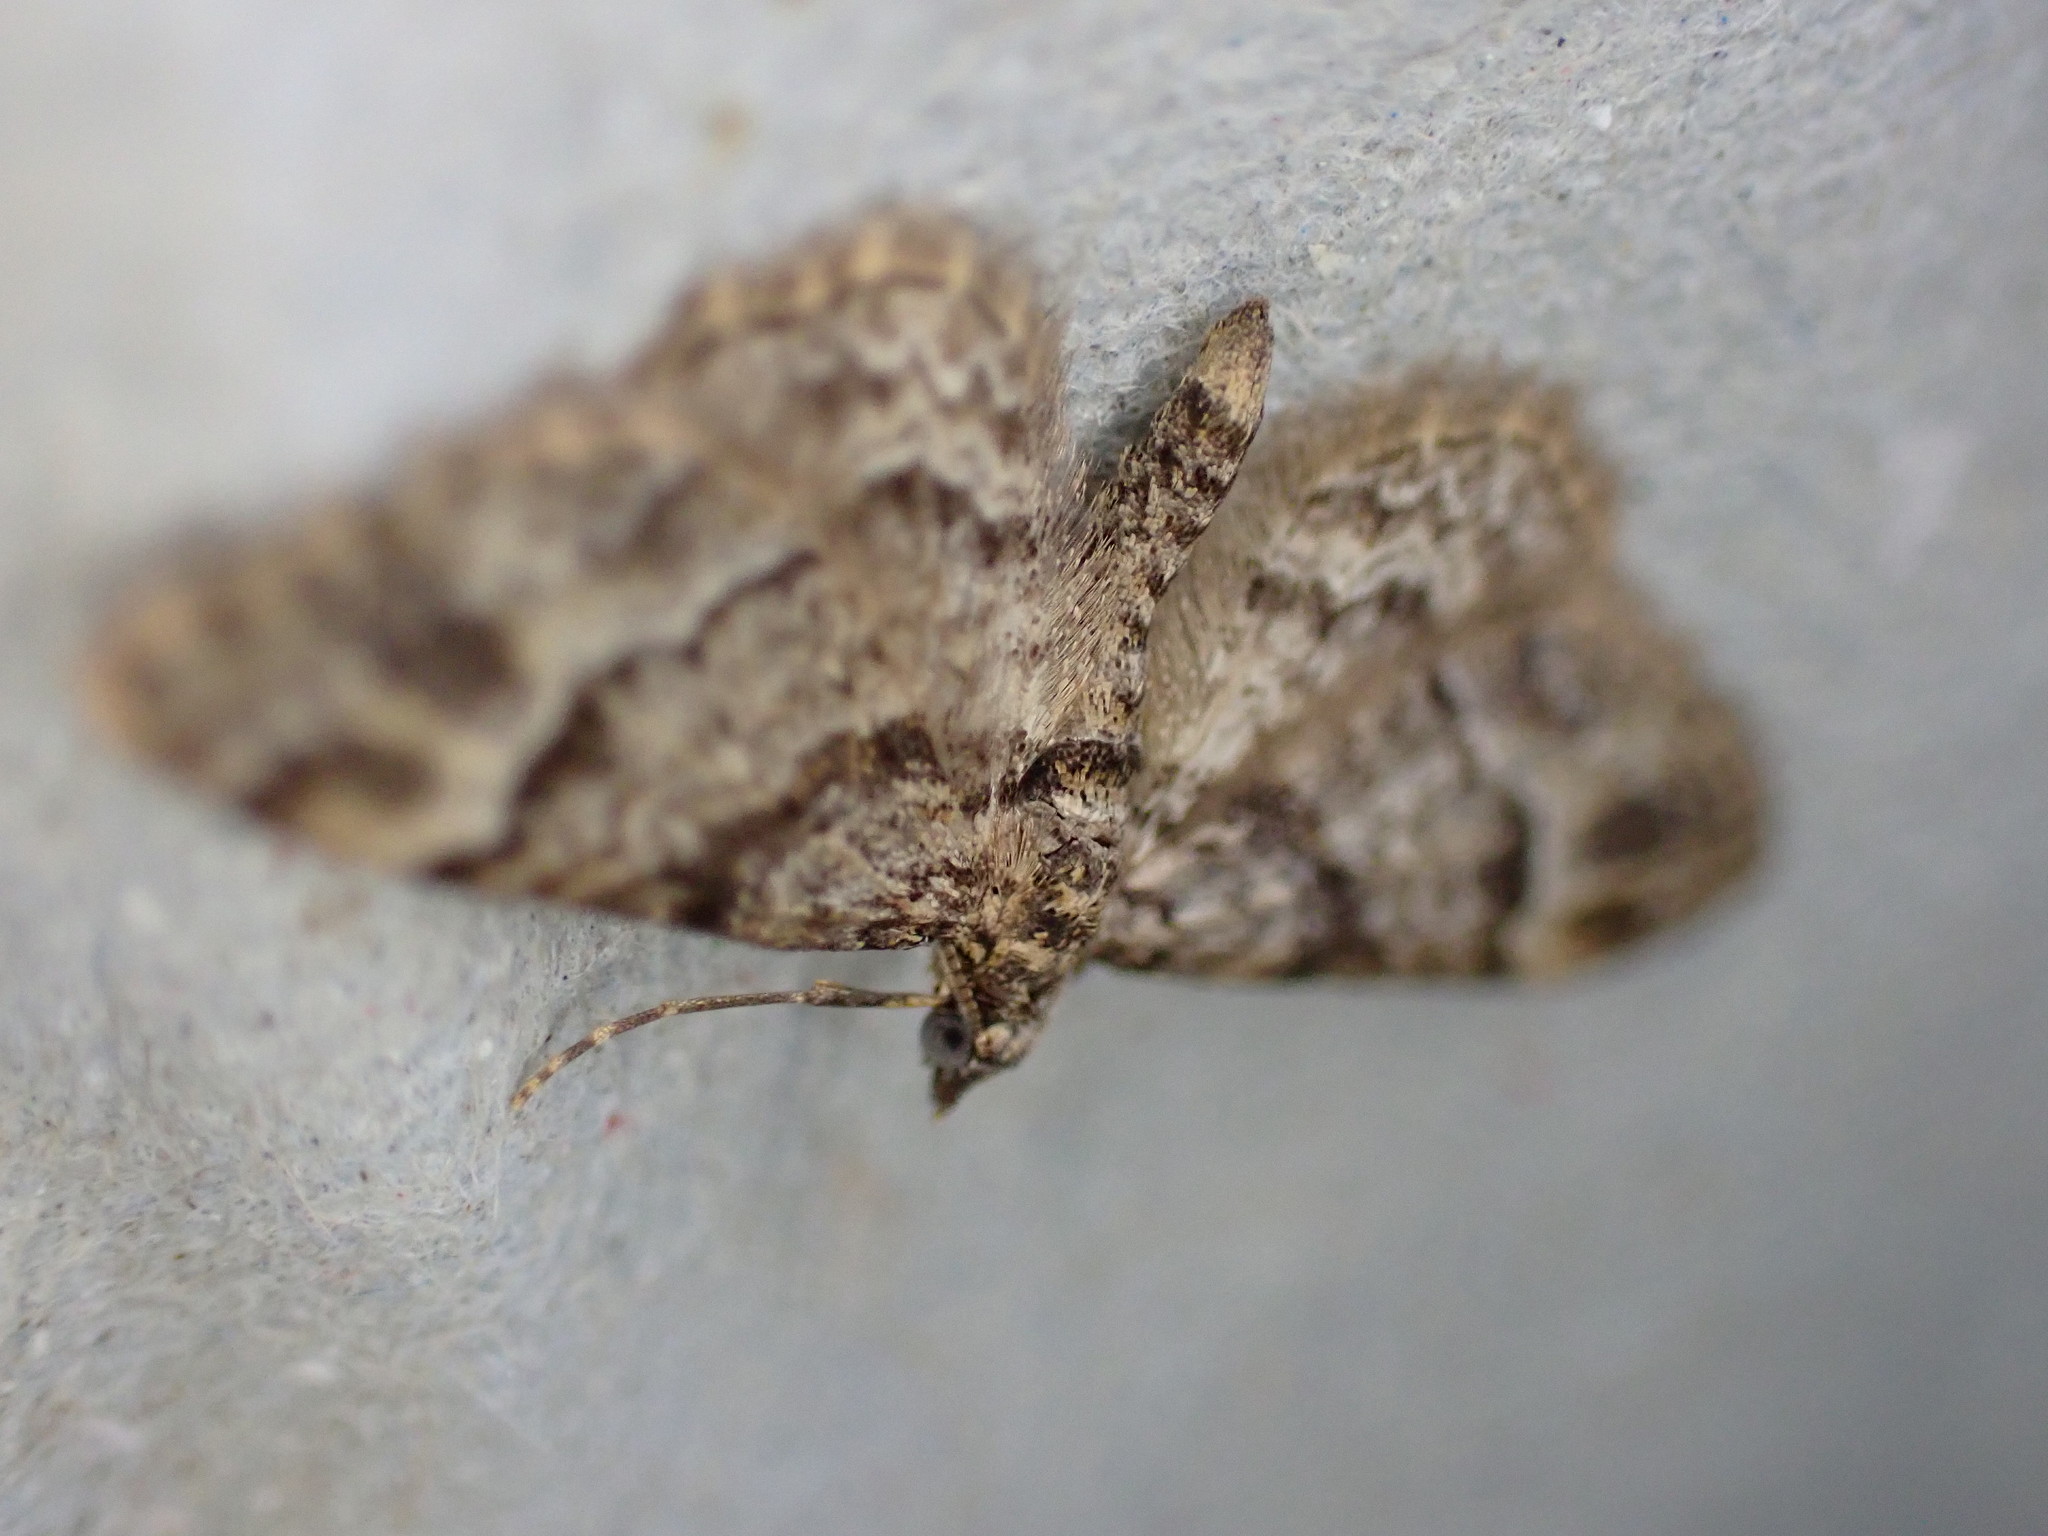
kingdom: Animalia
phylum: Arthropoda
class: Insecta
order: Lepidoptera
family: Geometridae
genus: Gymnoscelis
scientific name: Gymnoscelis rufifasciata
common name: Double-striped pug
